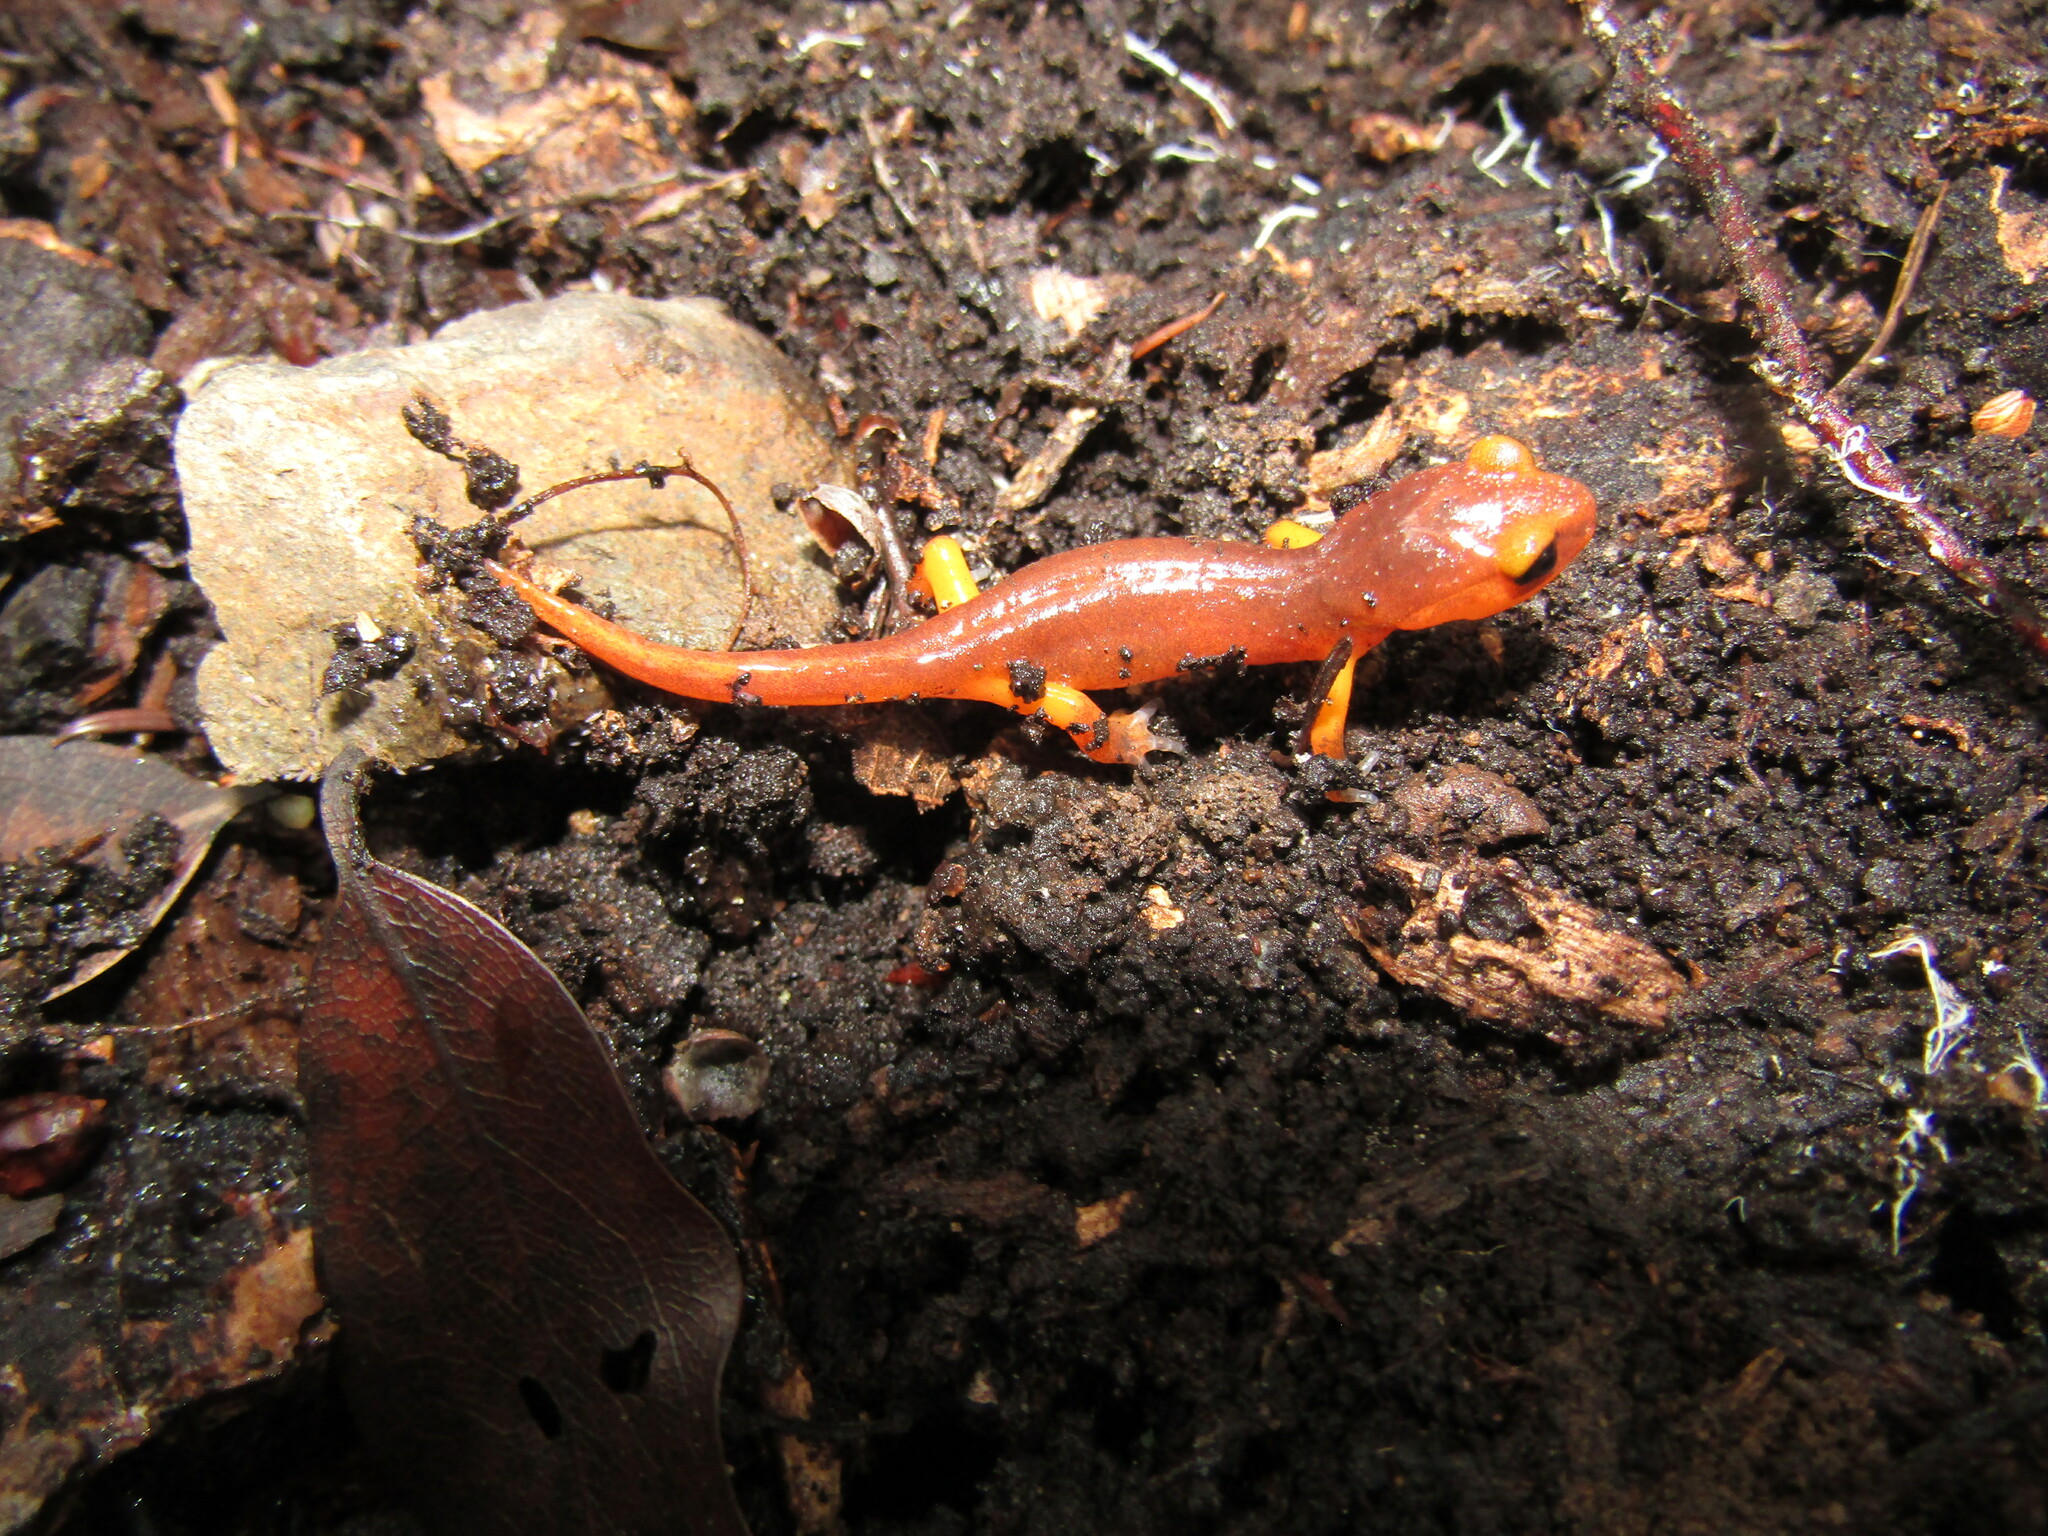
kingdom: Animalia
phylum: Chordata
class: Amphibia
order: Caudata
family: Plethodontidae
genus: Ensatina
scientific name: Ensatina eschscholtzii
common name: Ensatina
